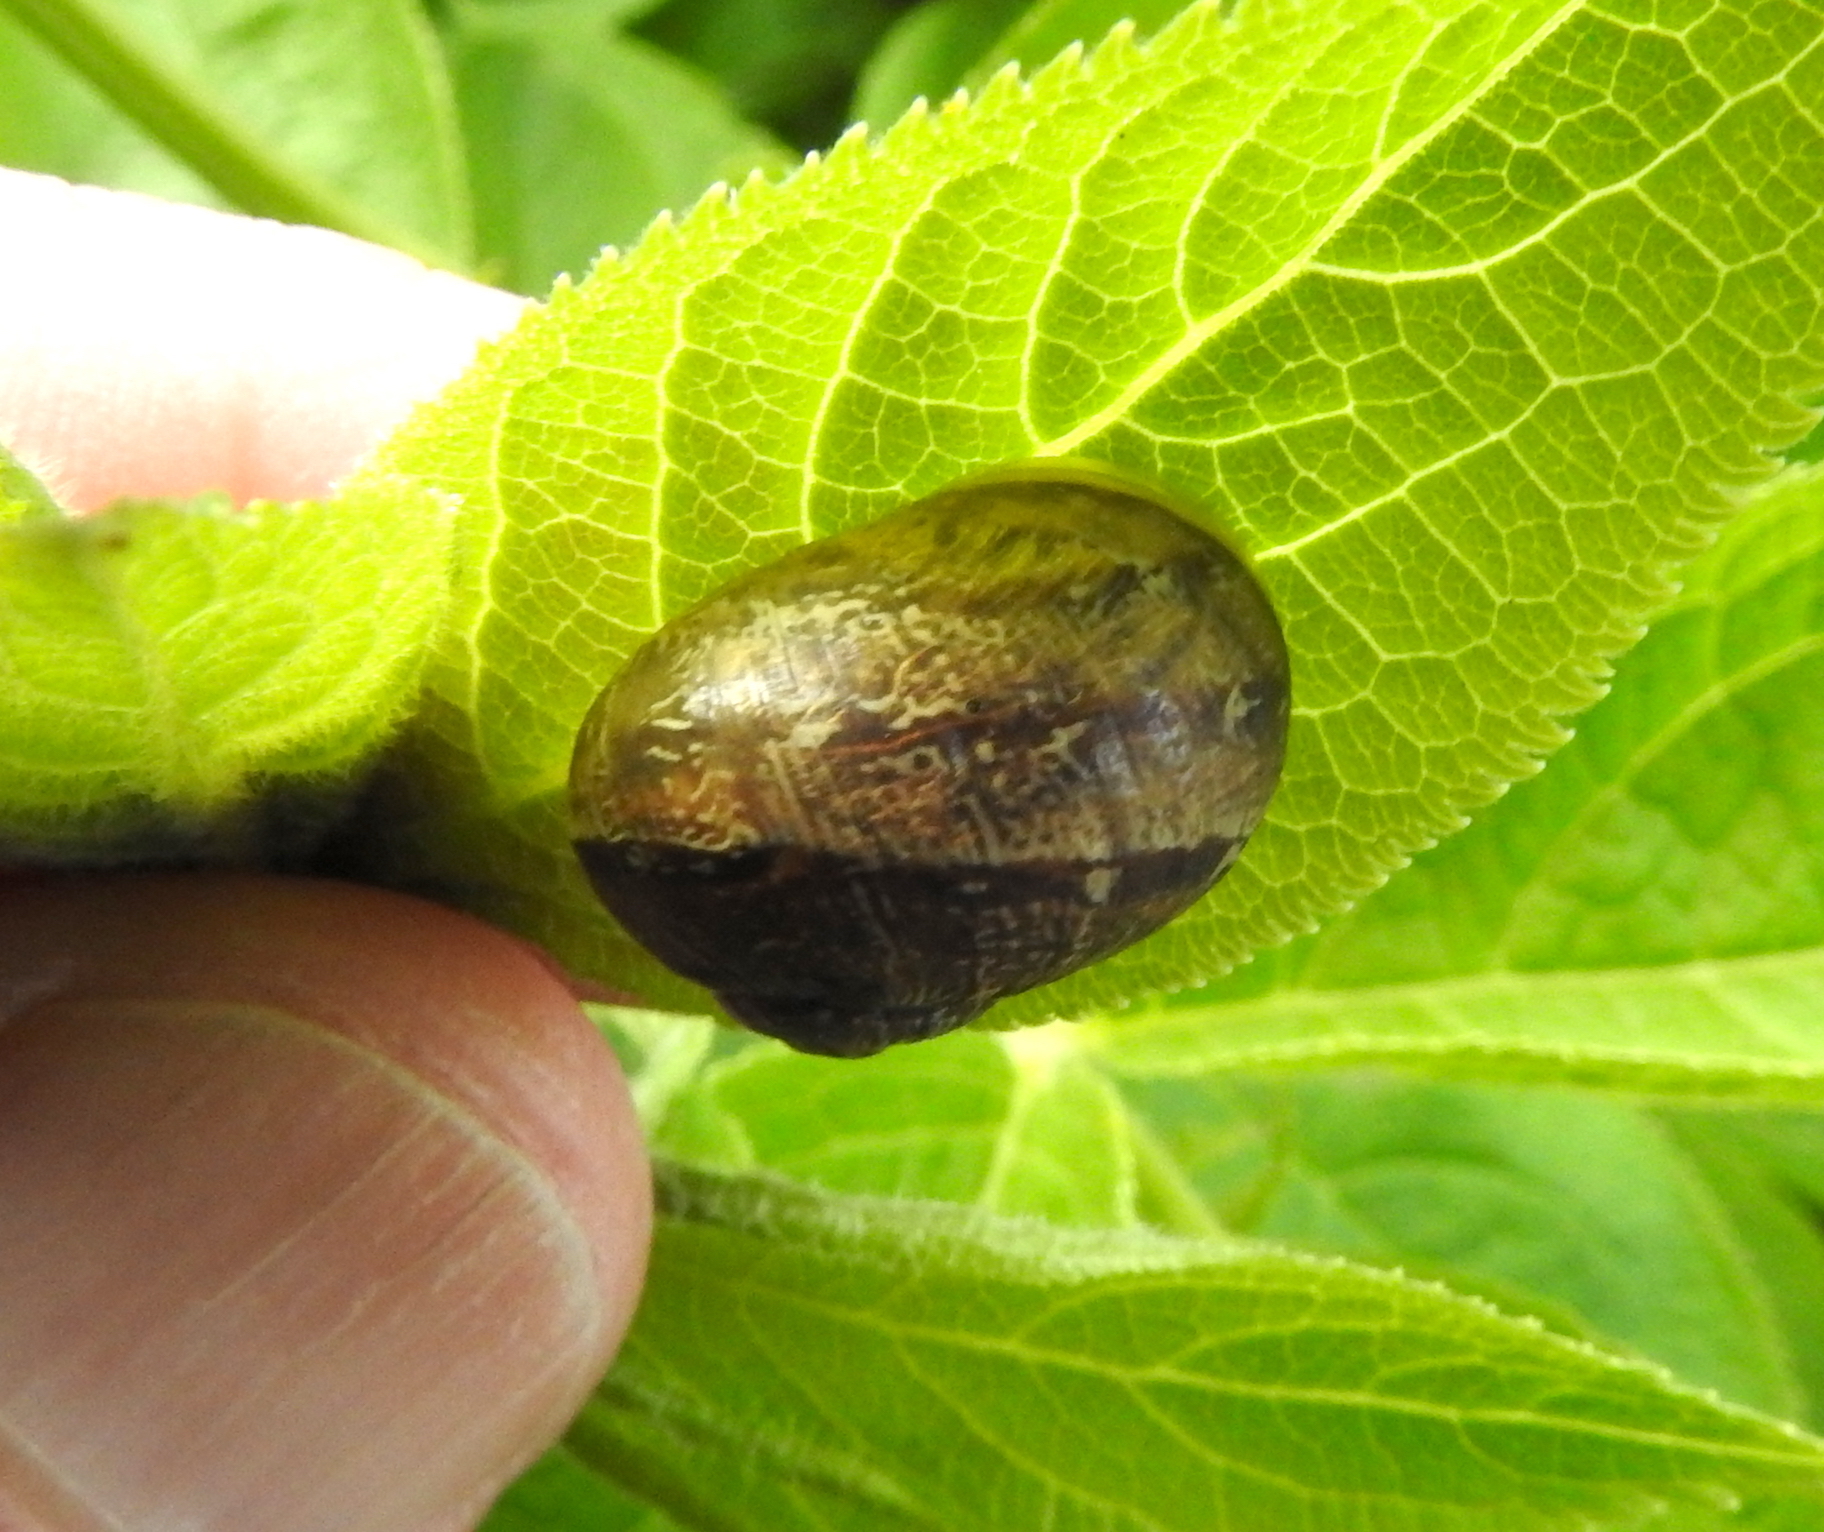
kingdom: Animalia
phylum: Mollusca
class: Gastropoda
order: Stylommatophora
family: Helicidae
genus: Cornu
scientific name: Cornu aspersum
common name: Brown garden snail
